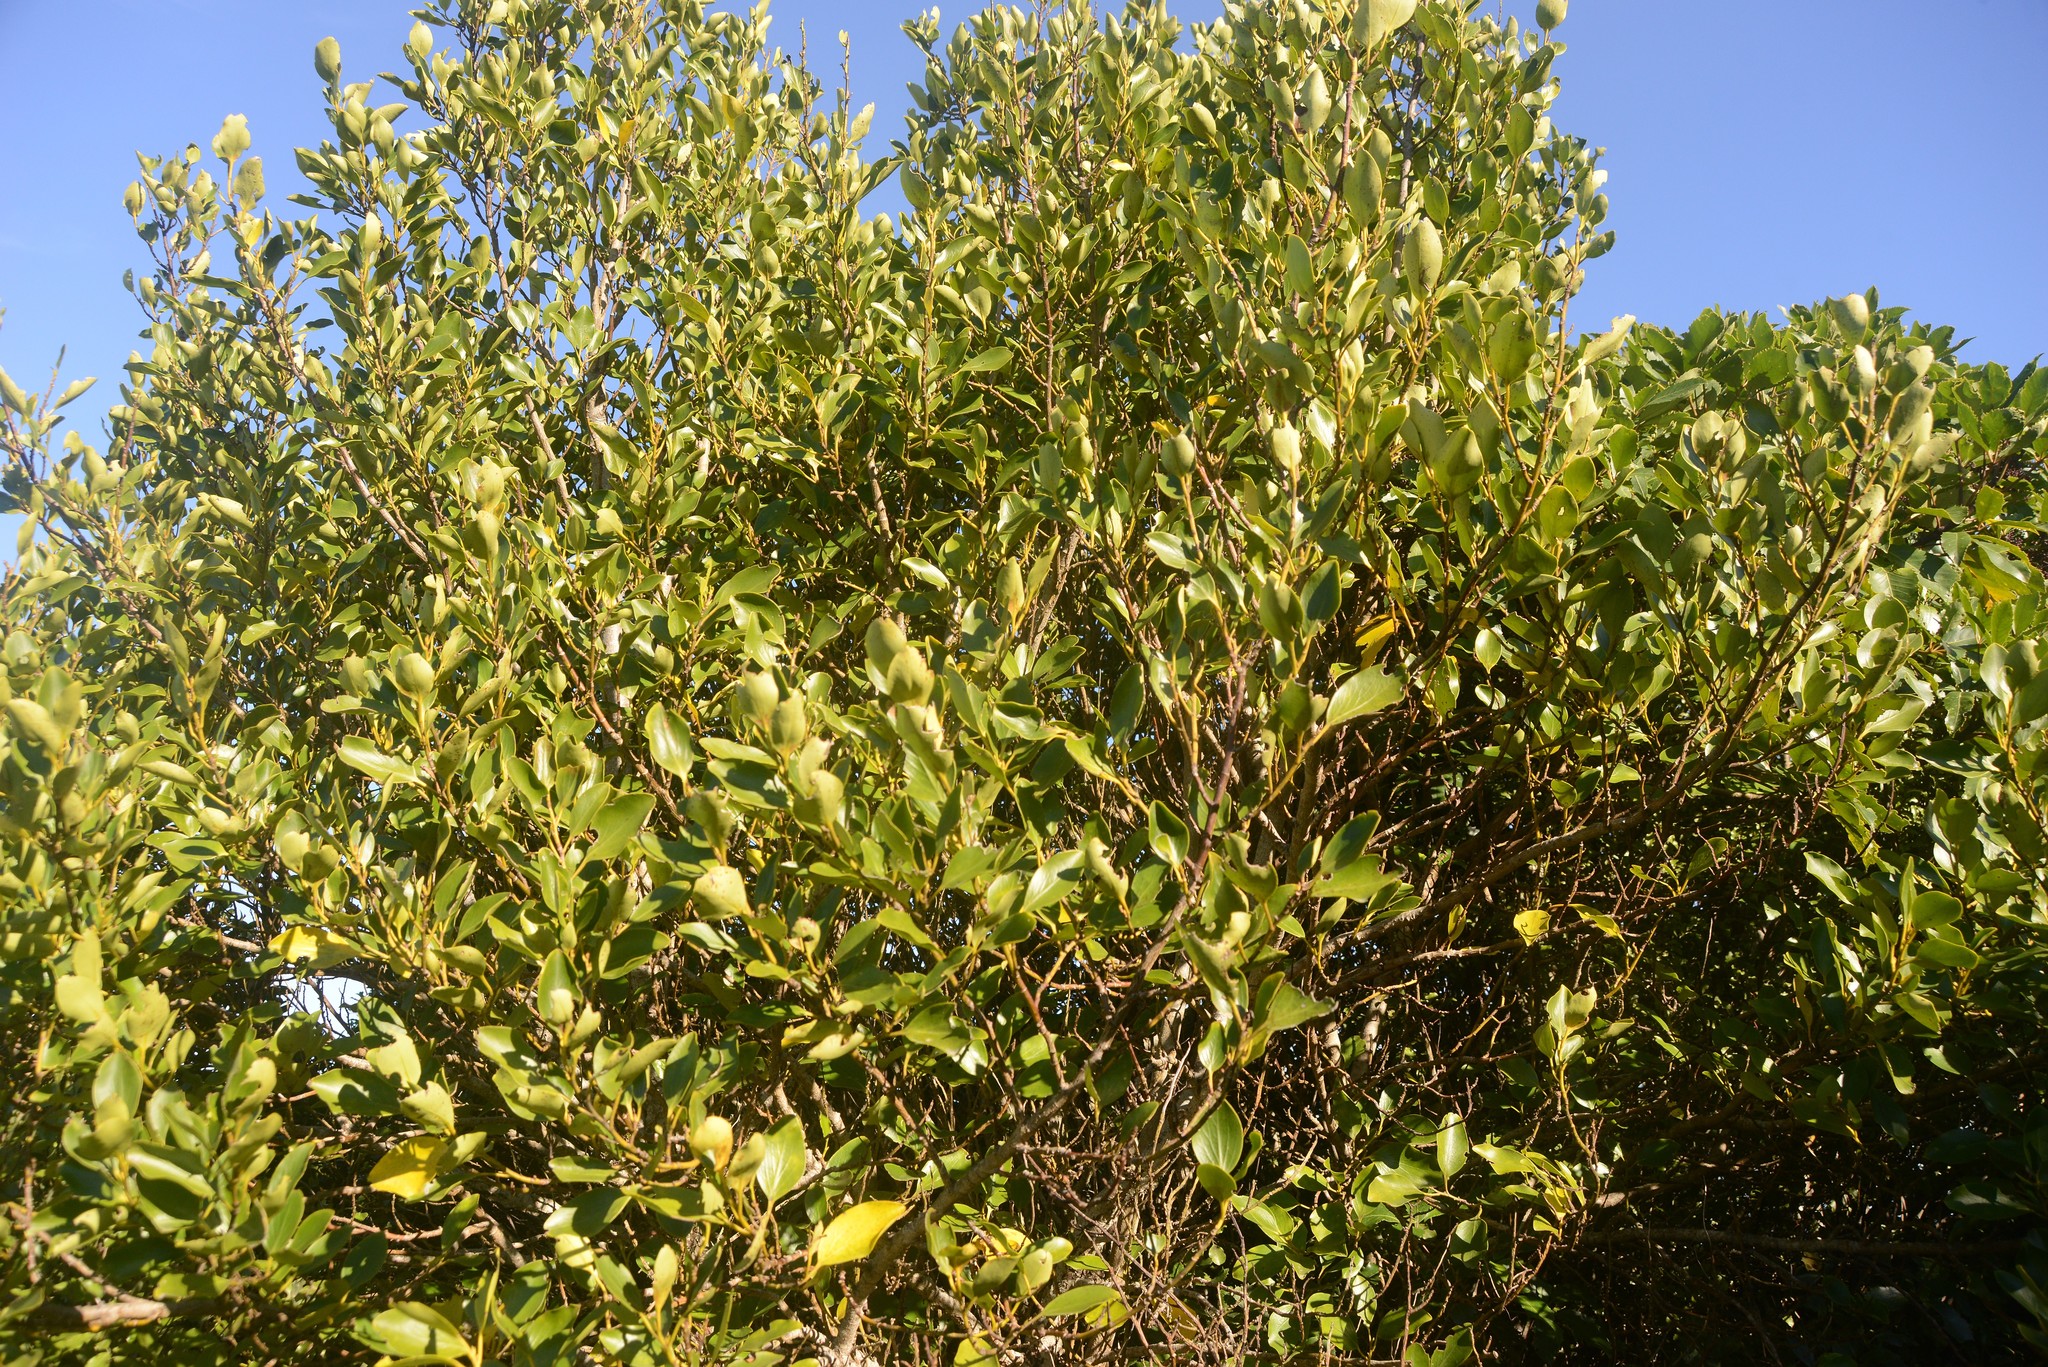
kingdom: Plantae
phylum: Tracheophyta
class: Magnoliopsida
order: Apiales
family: Griseliniaceae
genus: Griselinia
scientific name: Griselinia littoralis
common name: New zealand broadleaf
